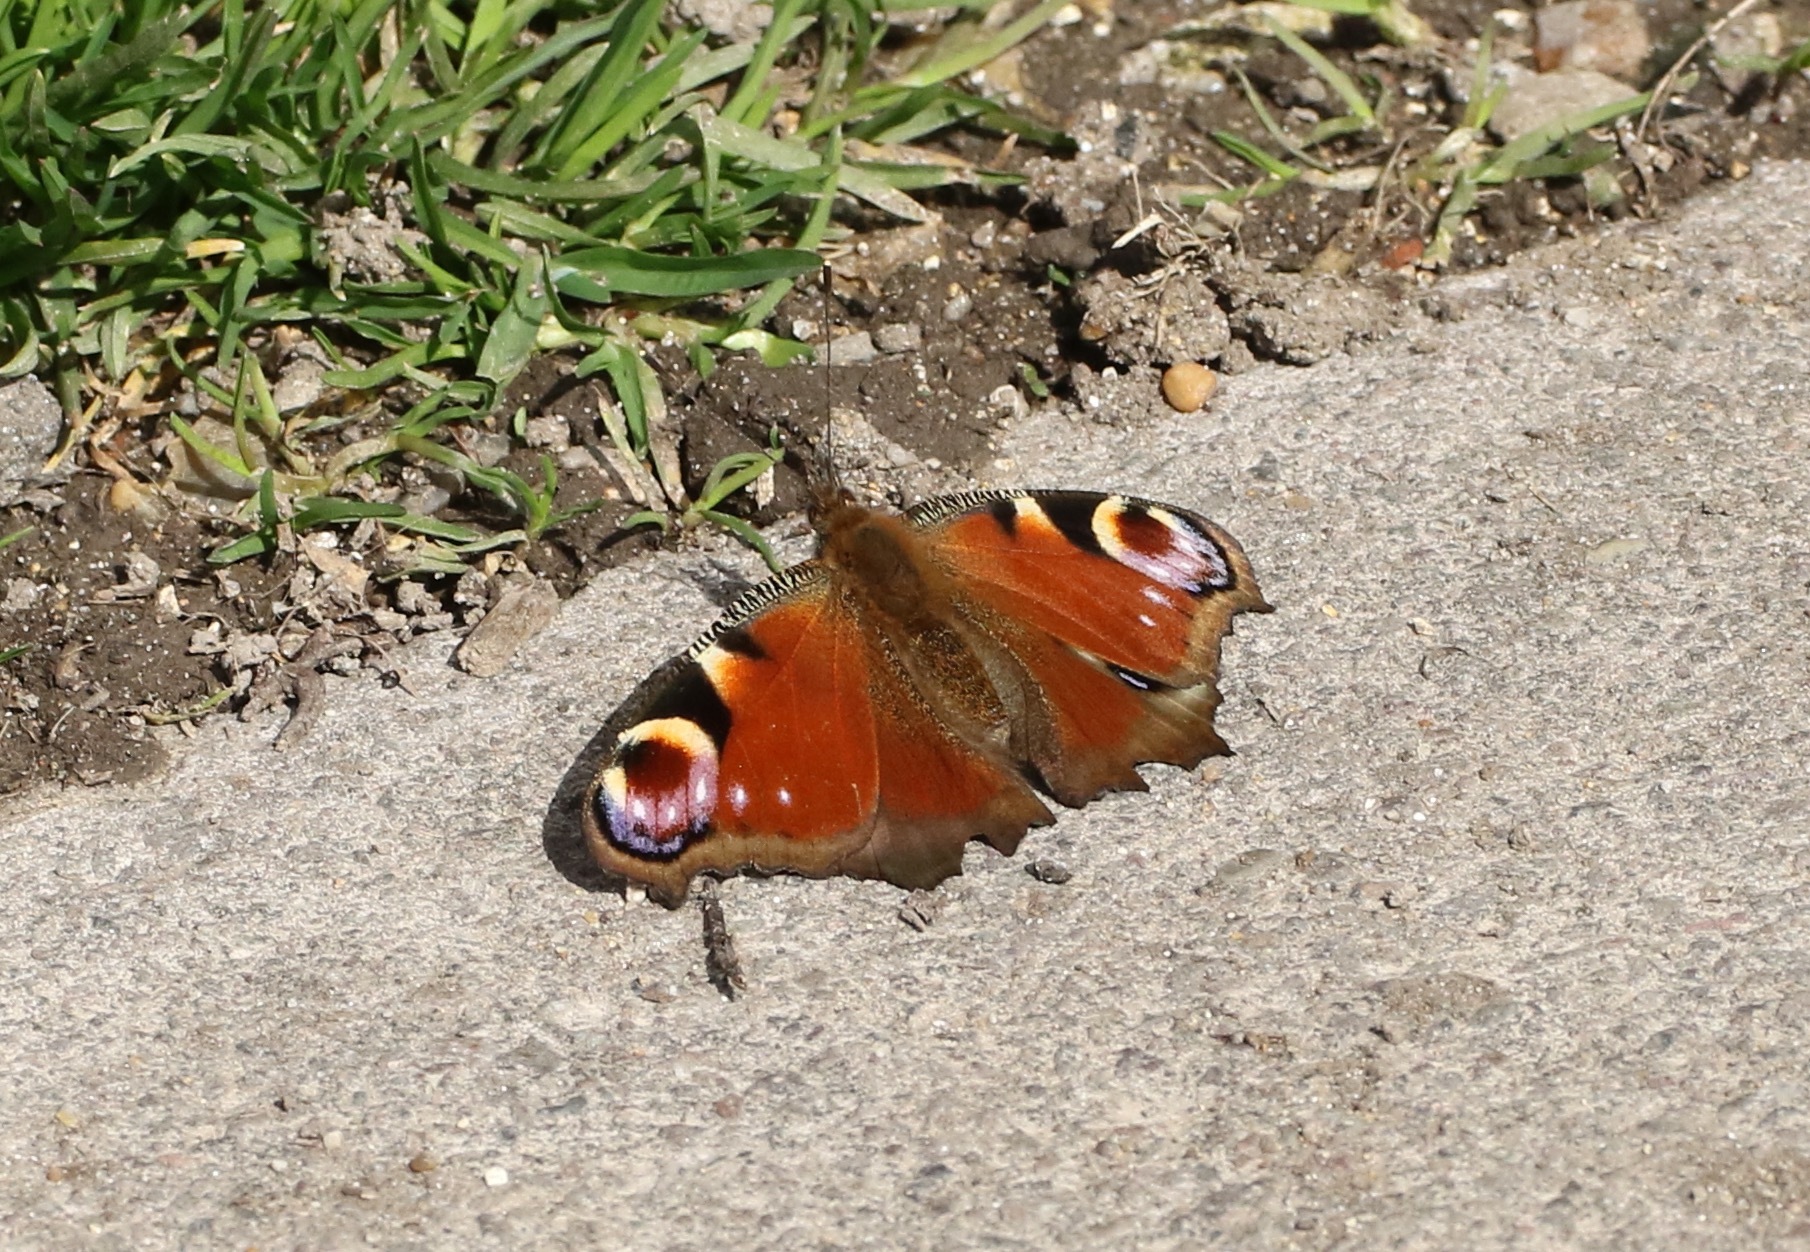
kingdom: Animalia
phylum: Arthropoda
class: Insecta
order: Lepidoptera
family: Nymphalidae
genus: Aglais
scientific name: Aglais io
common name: Peacock
